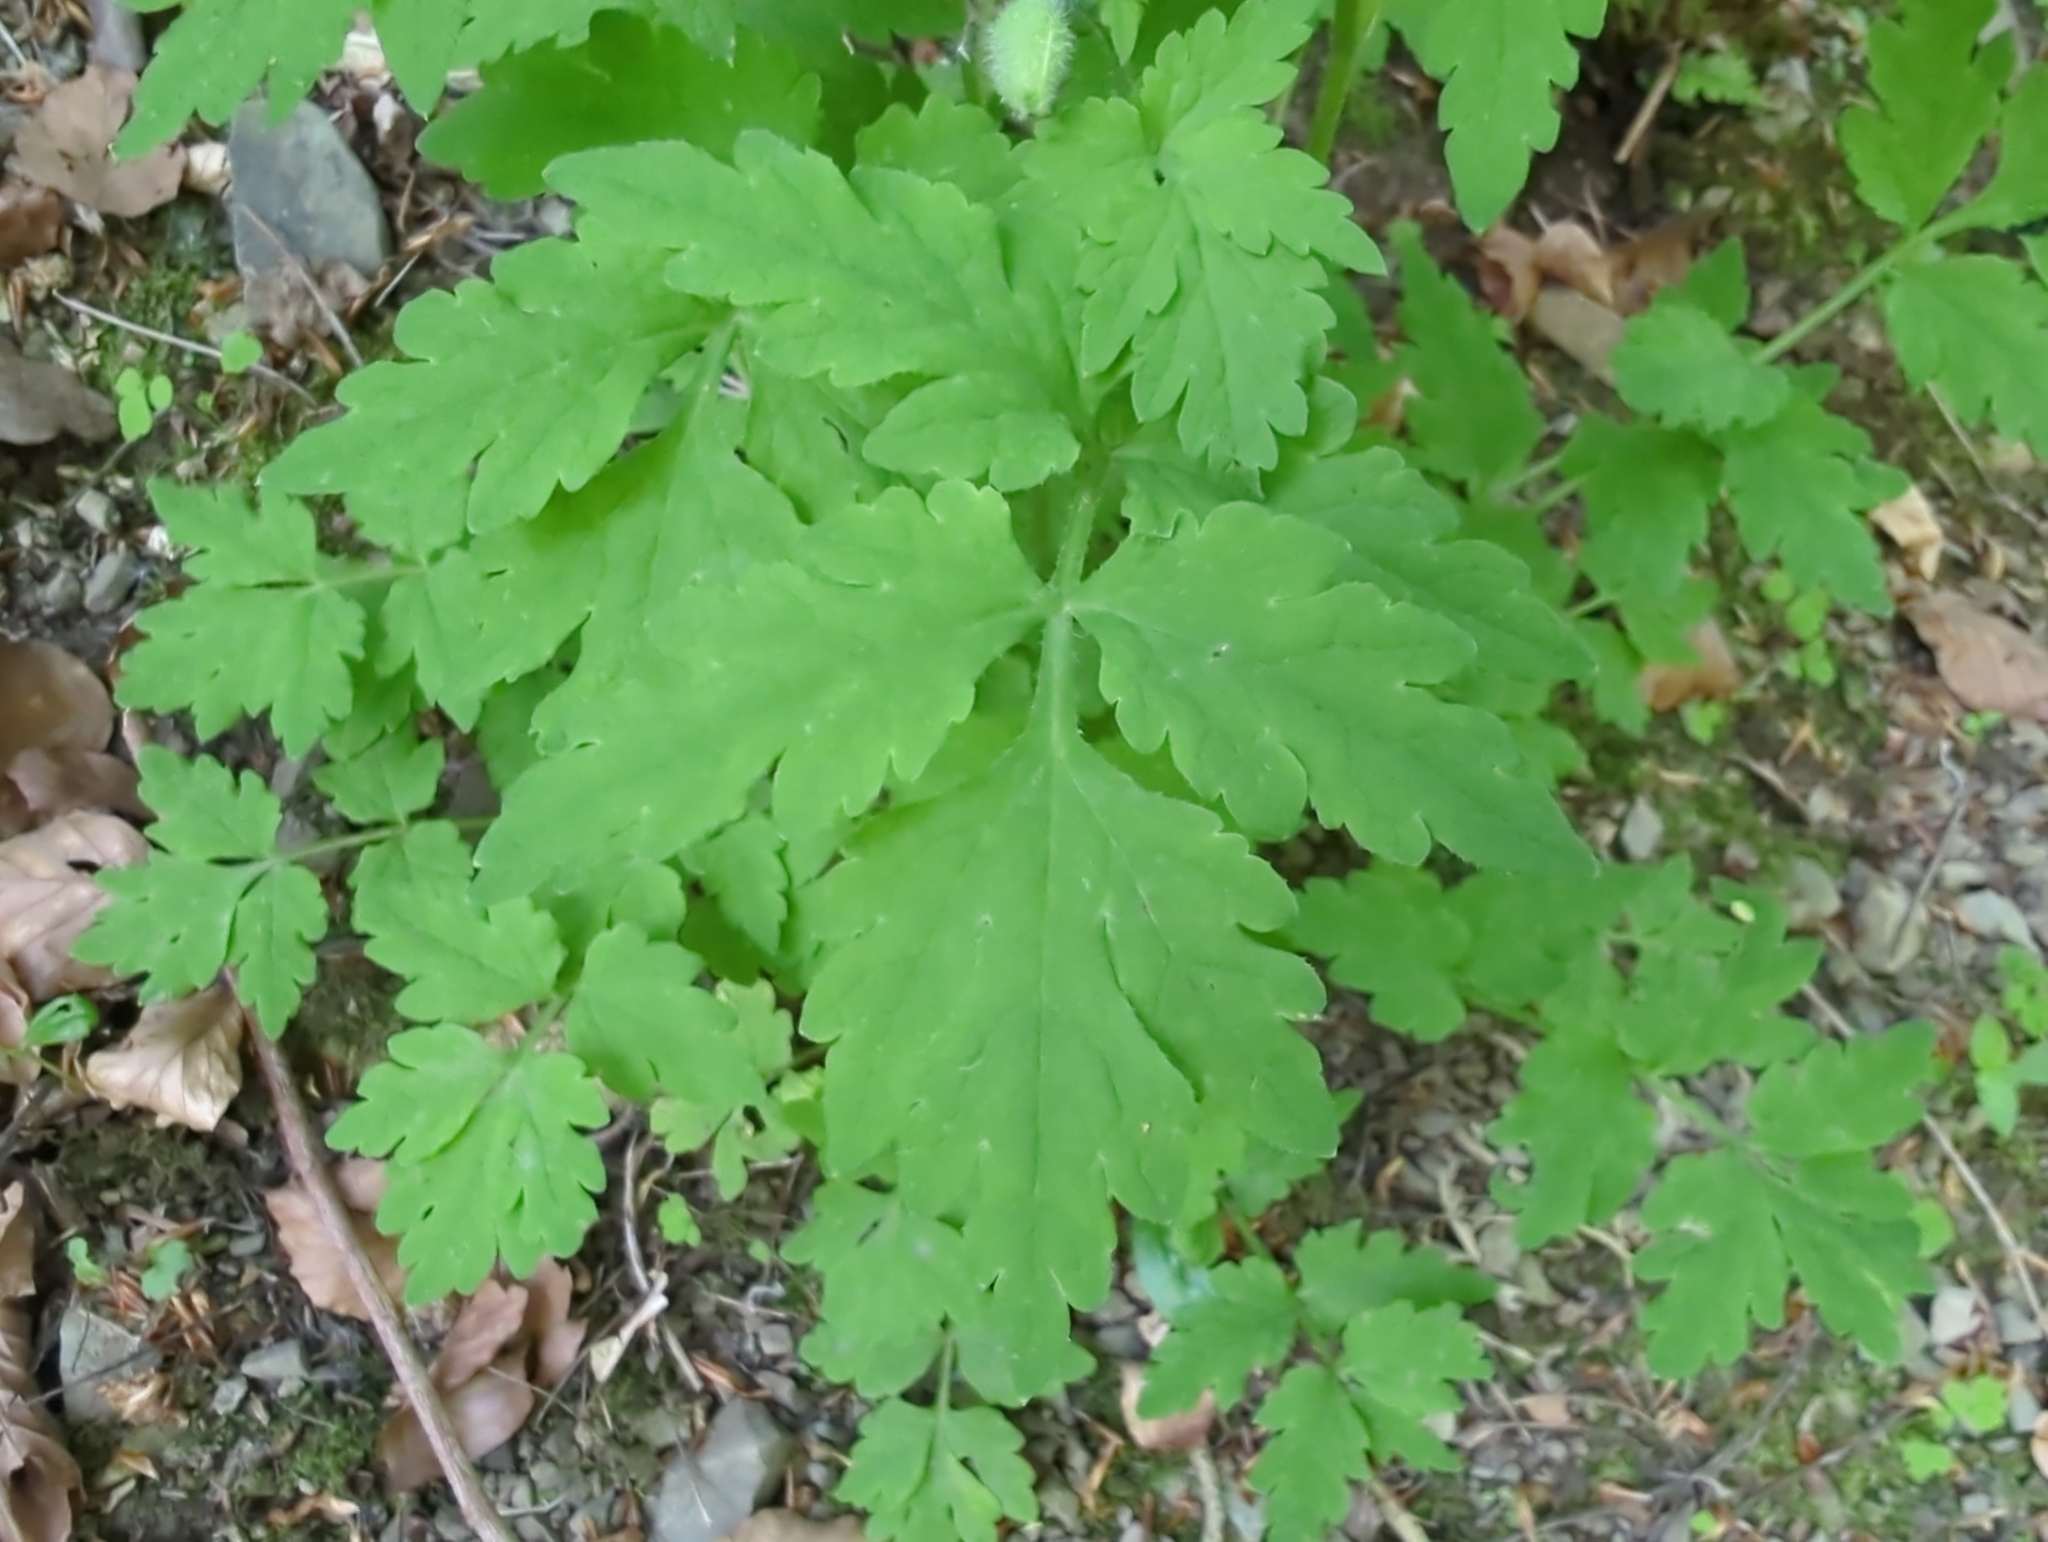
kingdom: Plantae
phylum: Tracheophyta
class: Magnoliopsida
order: Ranunculales
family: Papaveraceae
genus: Papaver
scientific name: Papaver cambricum
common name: Poppy
